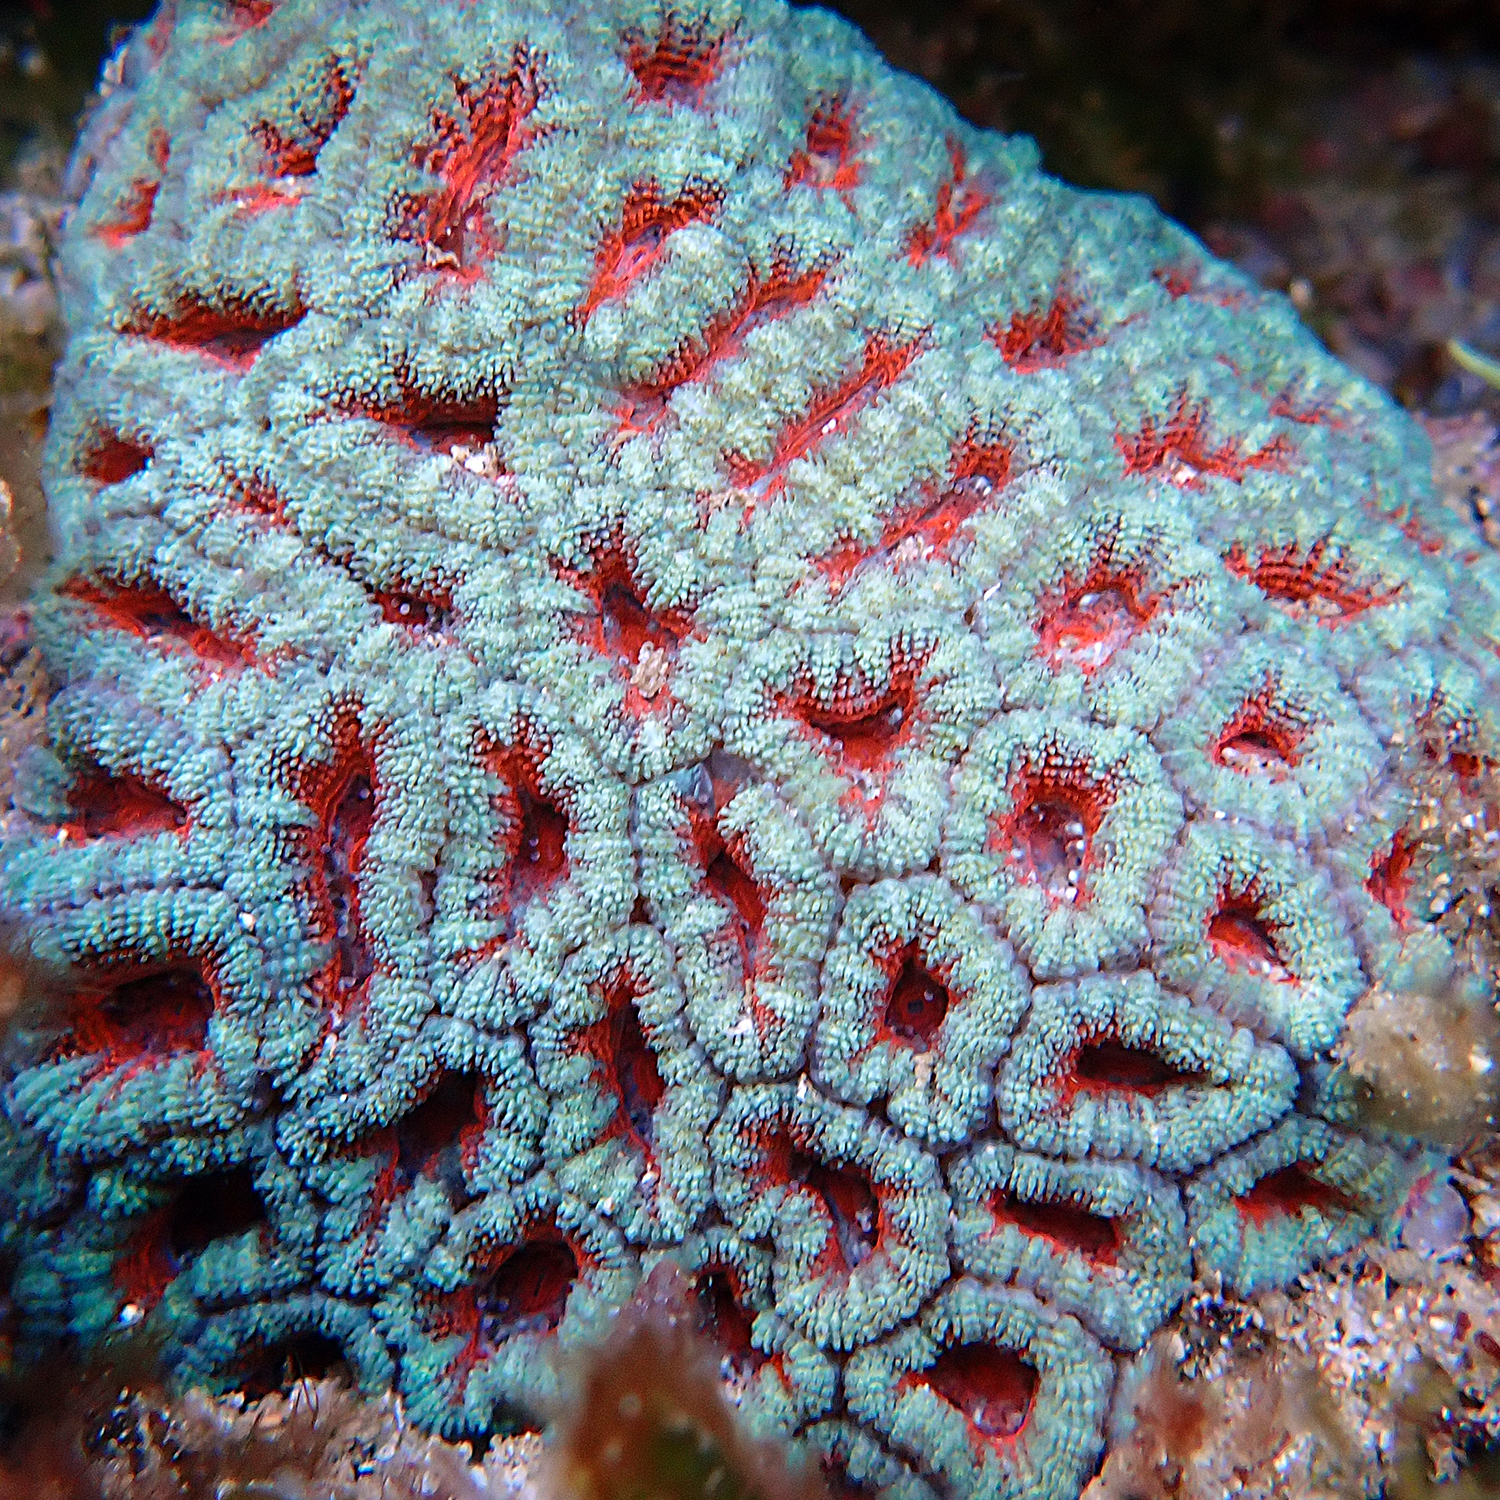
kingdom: Animalia
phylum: Cnidaria
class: Anthozoa
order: Scleractinia
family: Lobophylliidae
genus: Micromussa
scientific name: Micromussa lordhowensis
